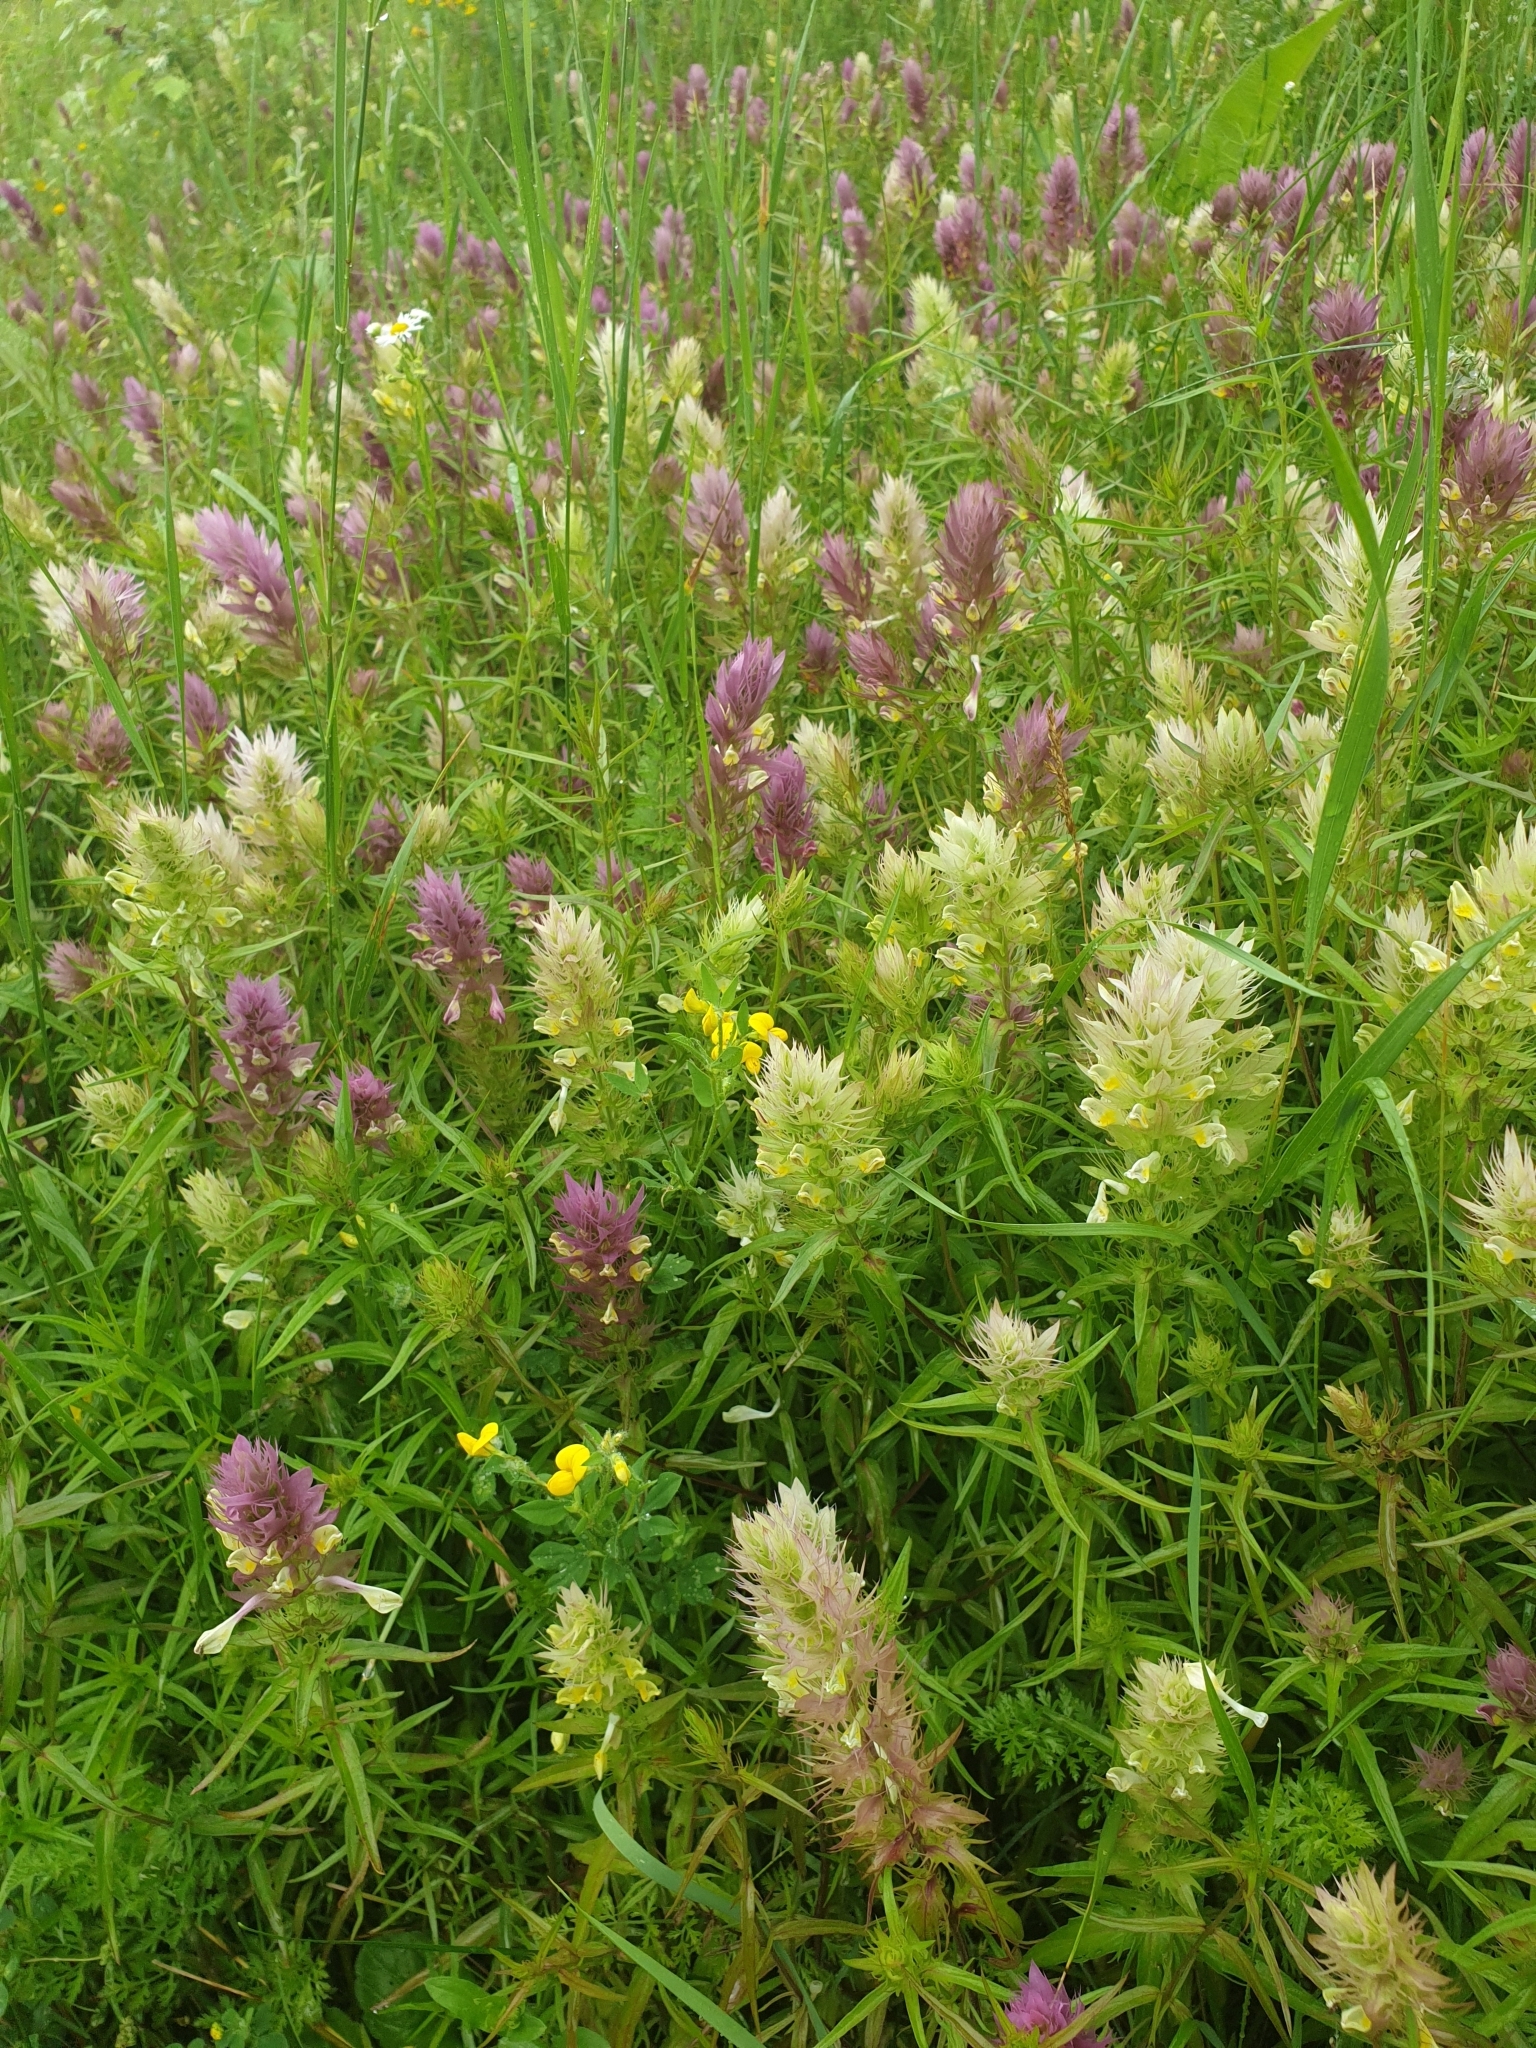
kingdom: Plantae
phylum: Tracheophyta
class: Magnoliopsida
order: Lamiales
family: Orobanchaceae
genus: Melampyrum
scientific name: Melampyrum arvense
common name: Field cow-wheat
